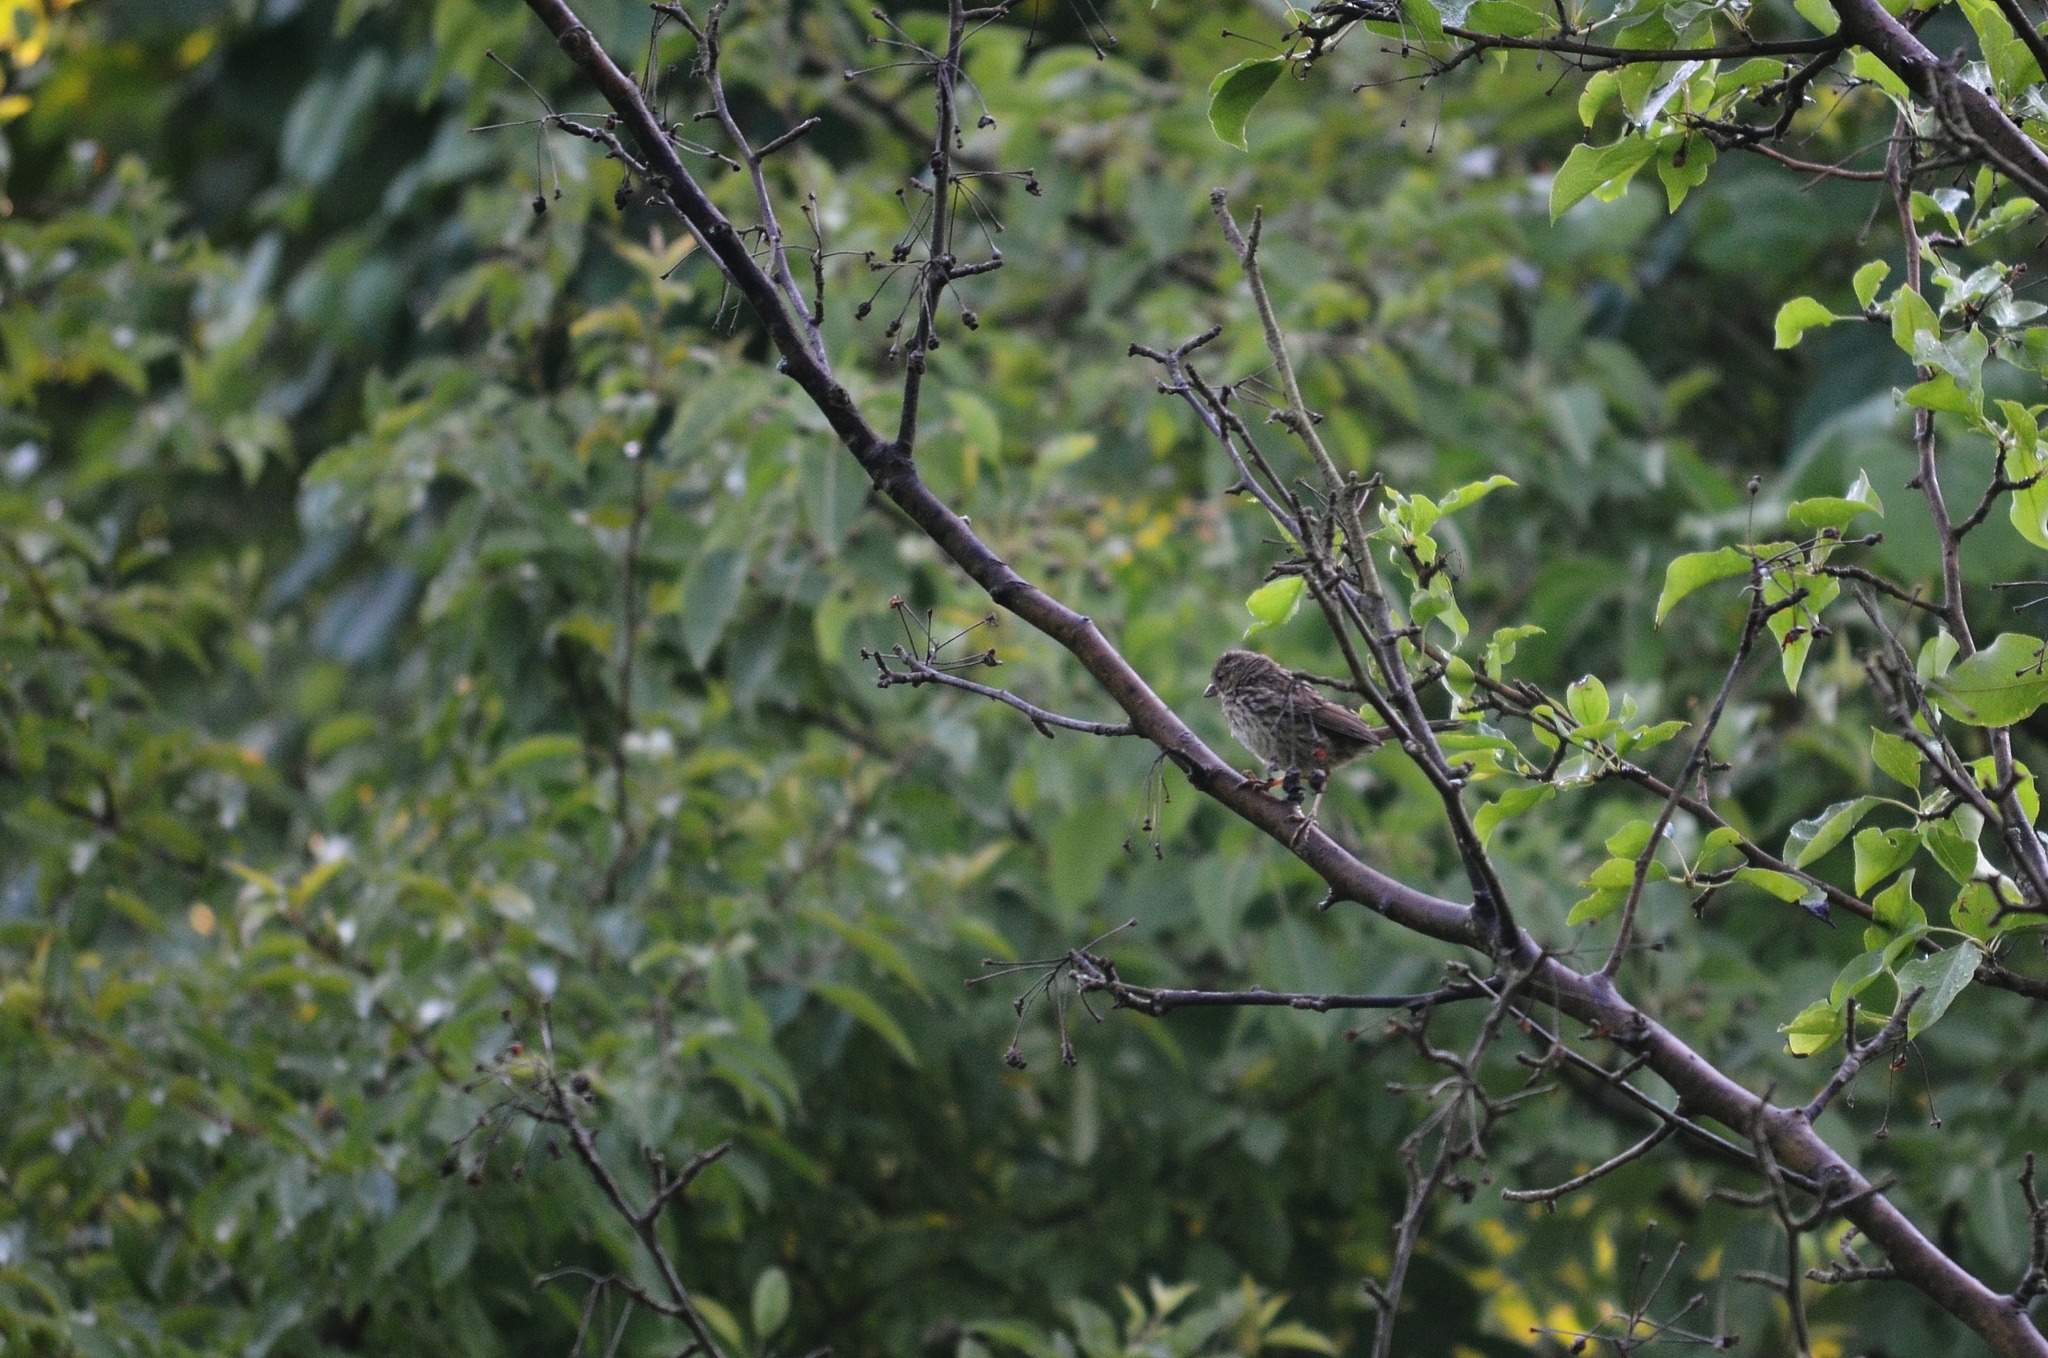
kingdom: Animalia
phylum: Chordata
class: Aves
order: Passeriformes
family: Fringillidae
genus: Haemorhous
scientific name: Haemorhous mexicanus
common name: House finch
